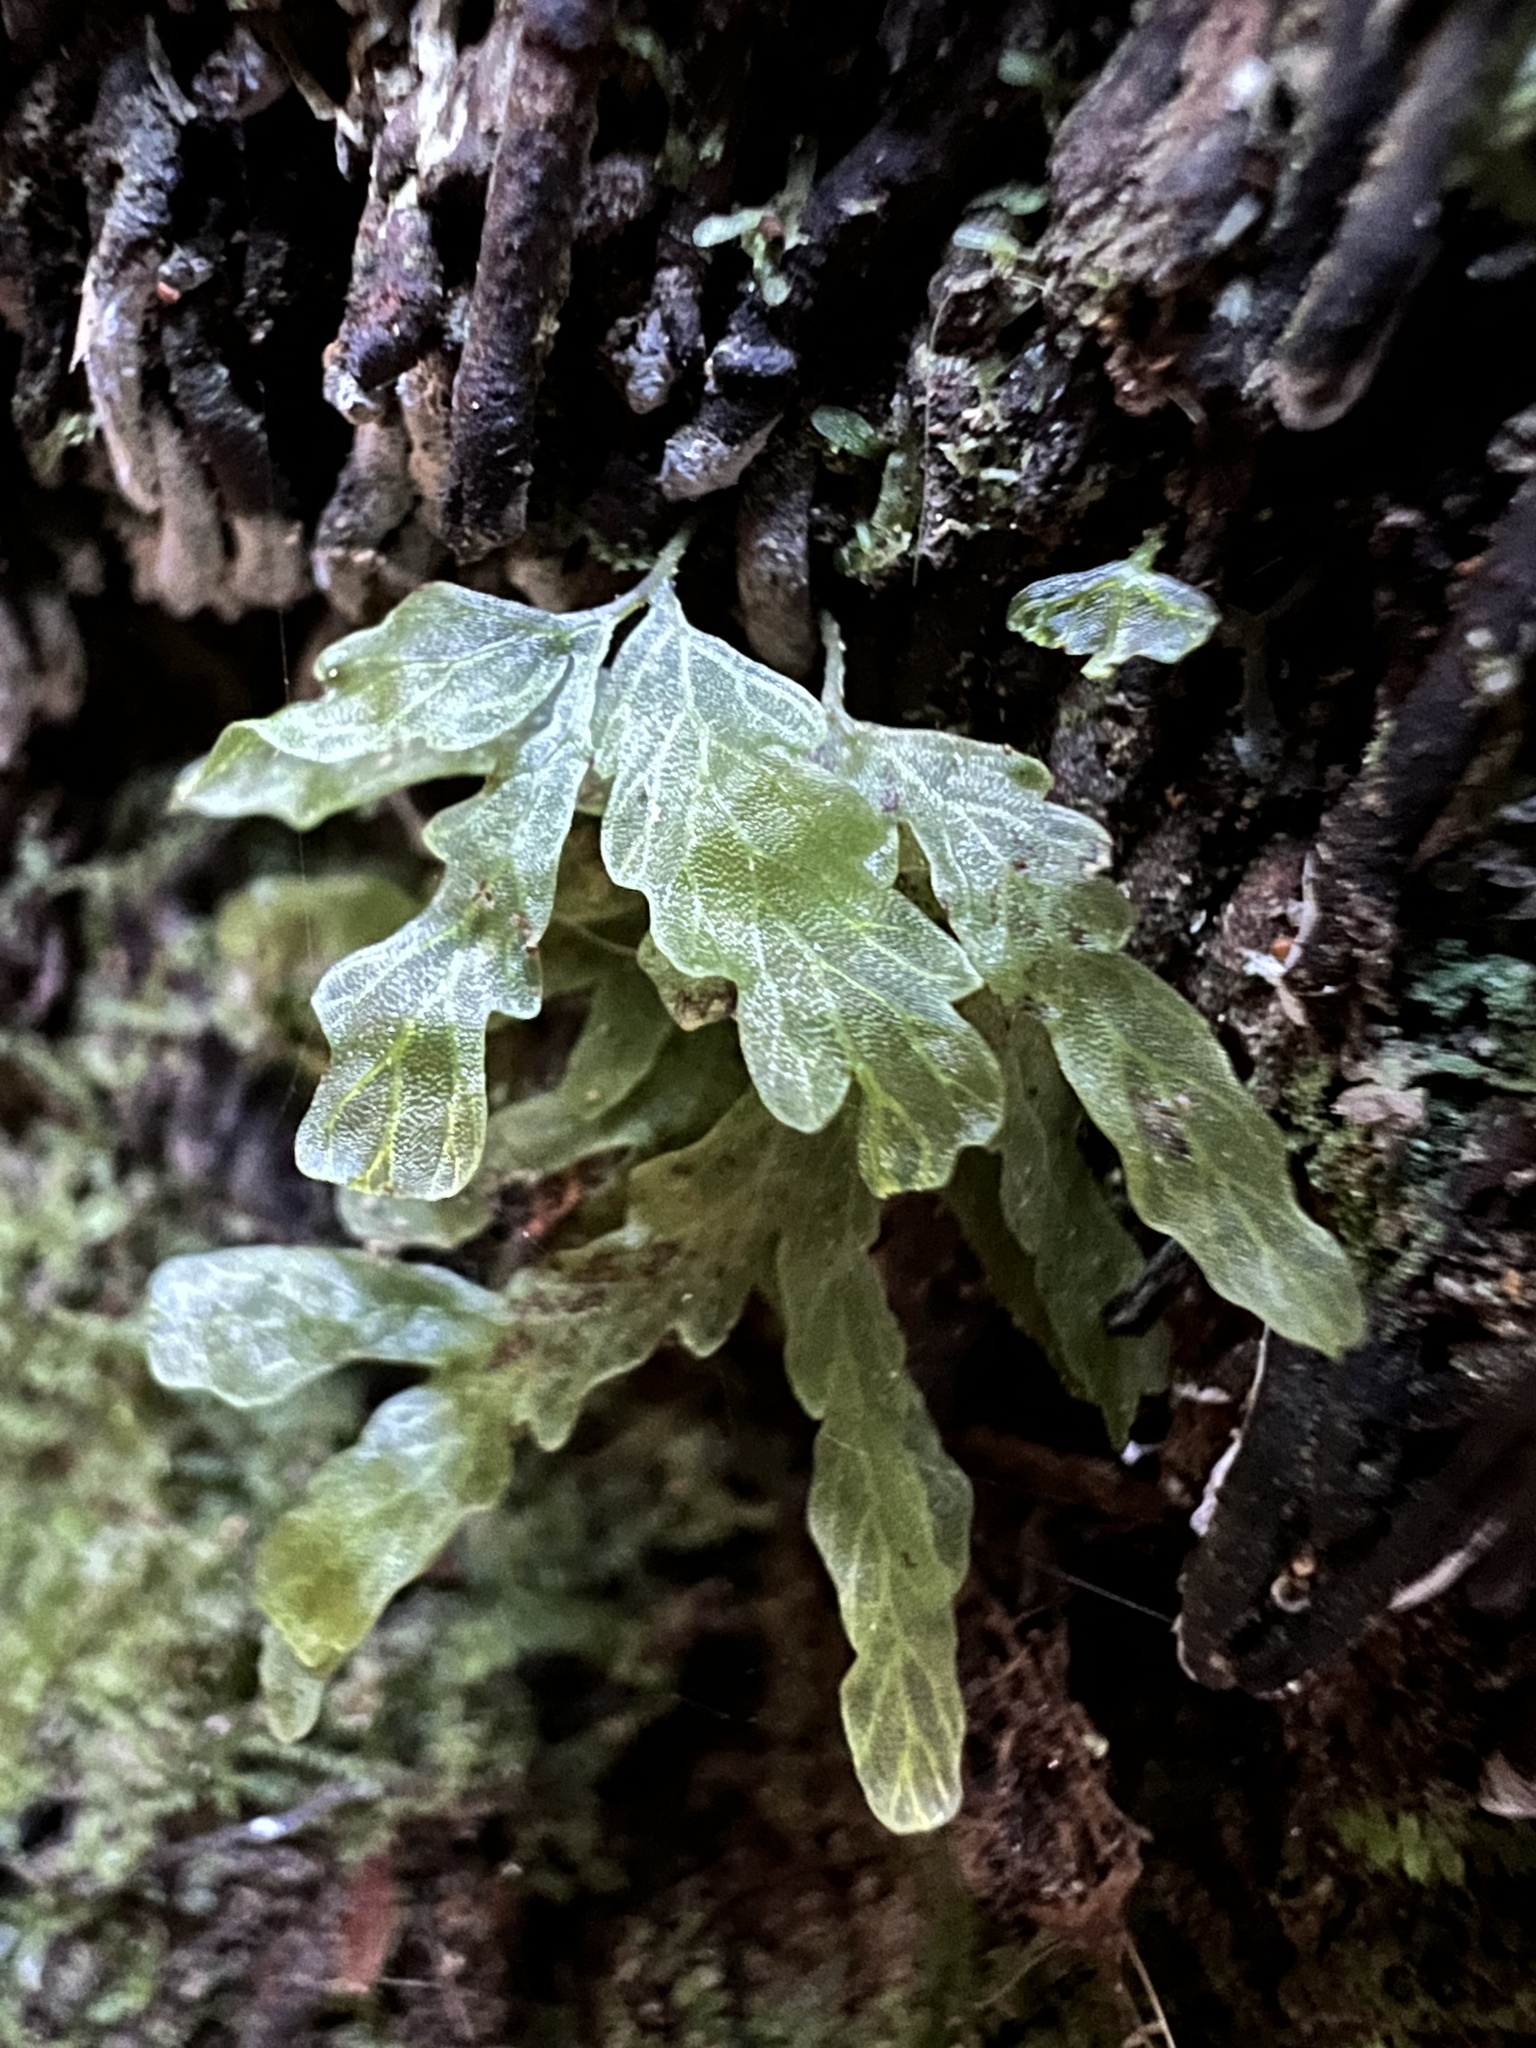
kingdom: Plantae
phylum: Tracheophyta
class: Polypodiopsida
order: Hymenophyllales
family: Hymenophyllaceae
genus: Polyphlebium
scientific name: Polyphlebium venosum
